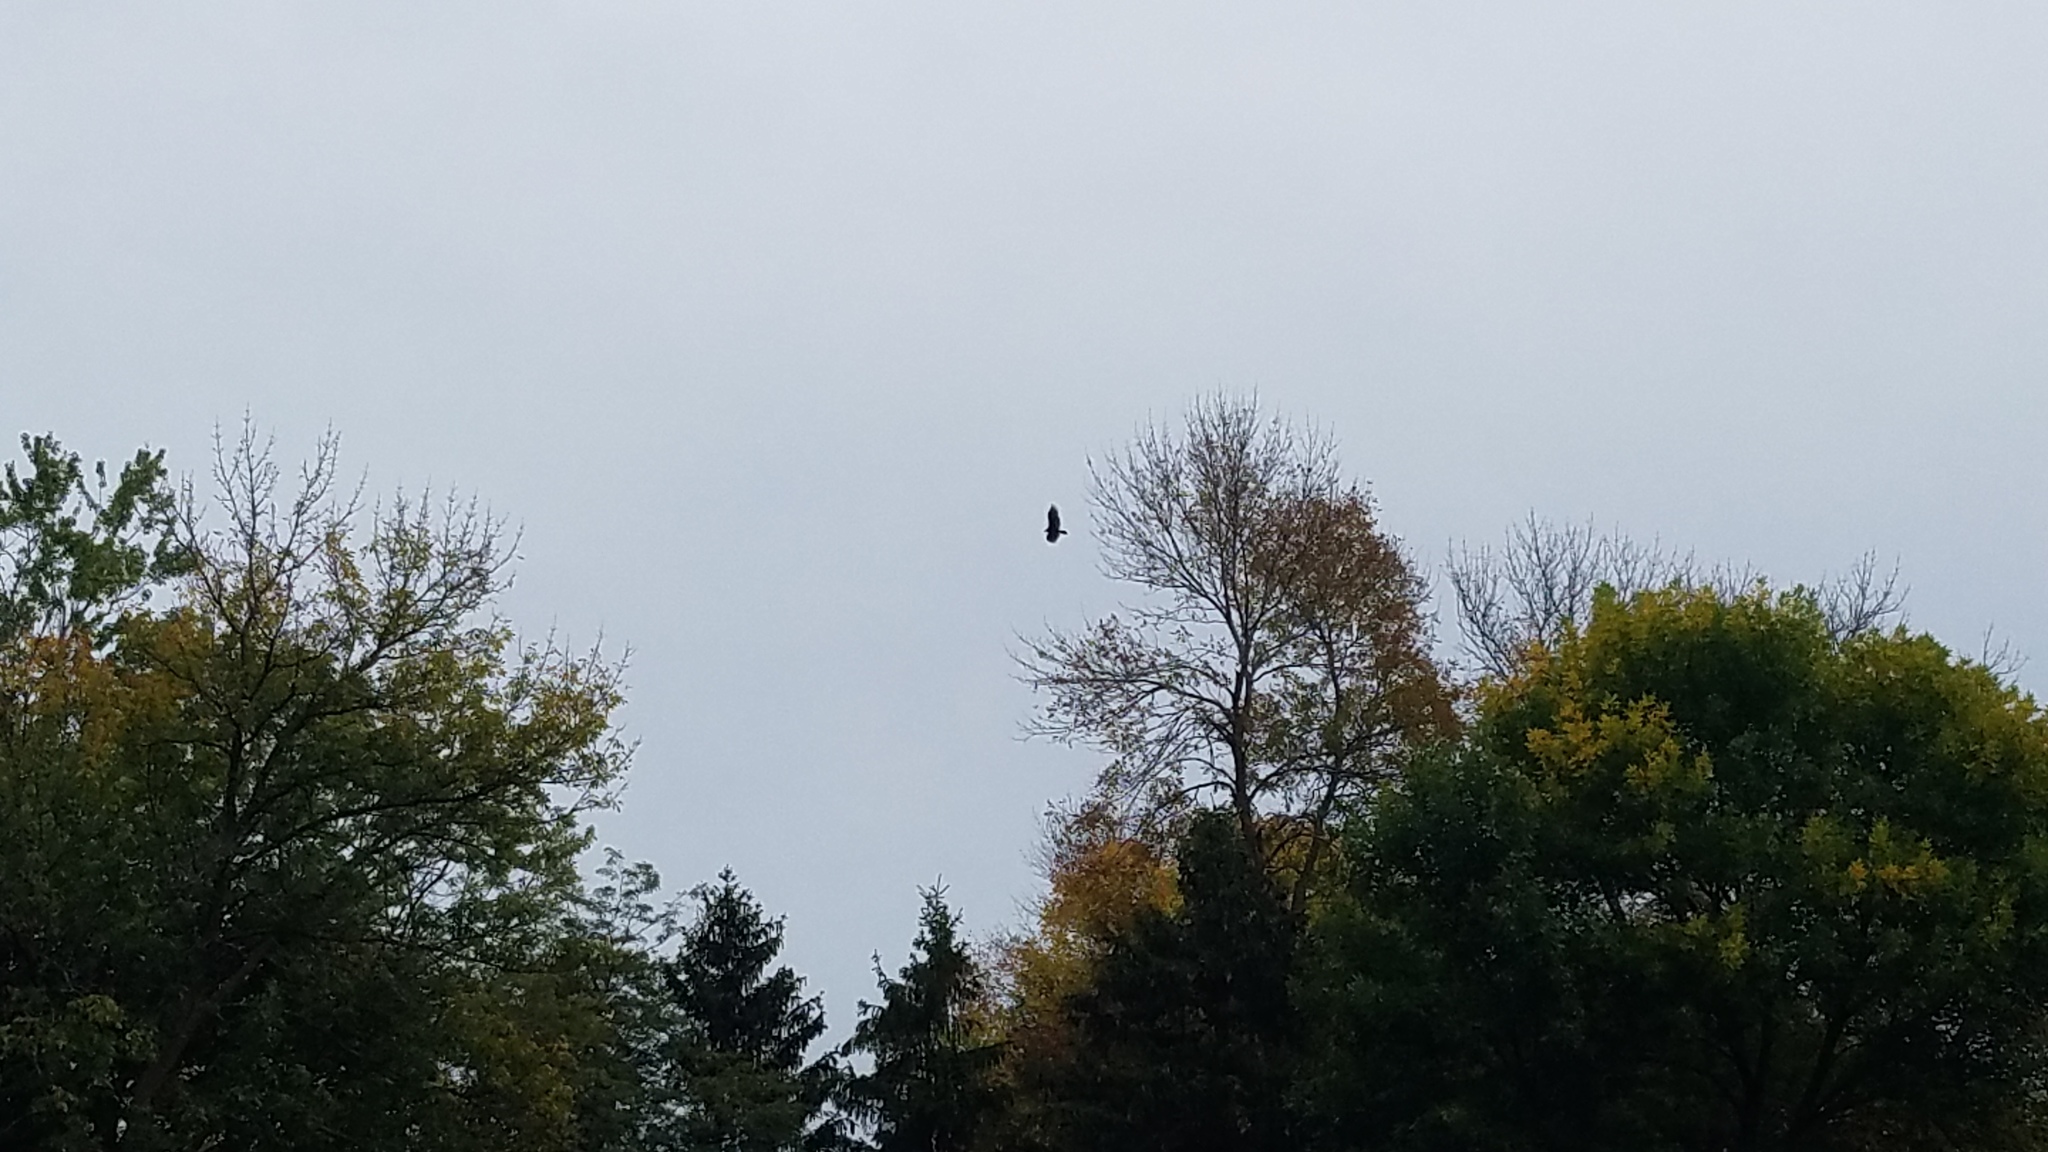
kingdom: Animalia
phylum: Chordata
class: Aves
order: Accipitriformes
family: Cathartidae
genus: Cathartes
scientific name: Cathartes aura
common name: Turkey vulture
